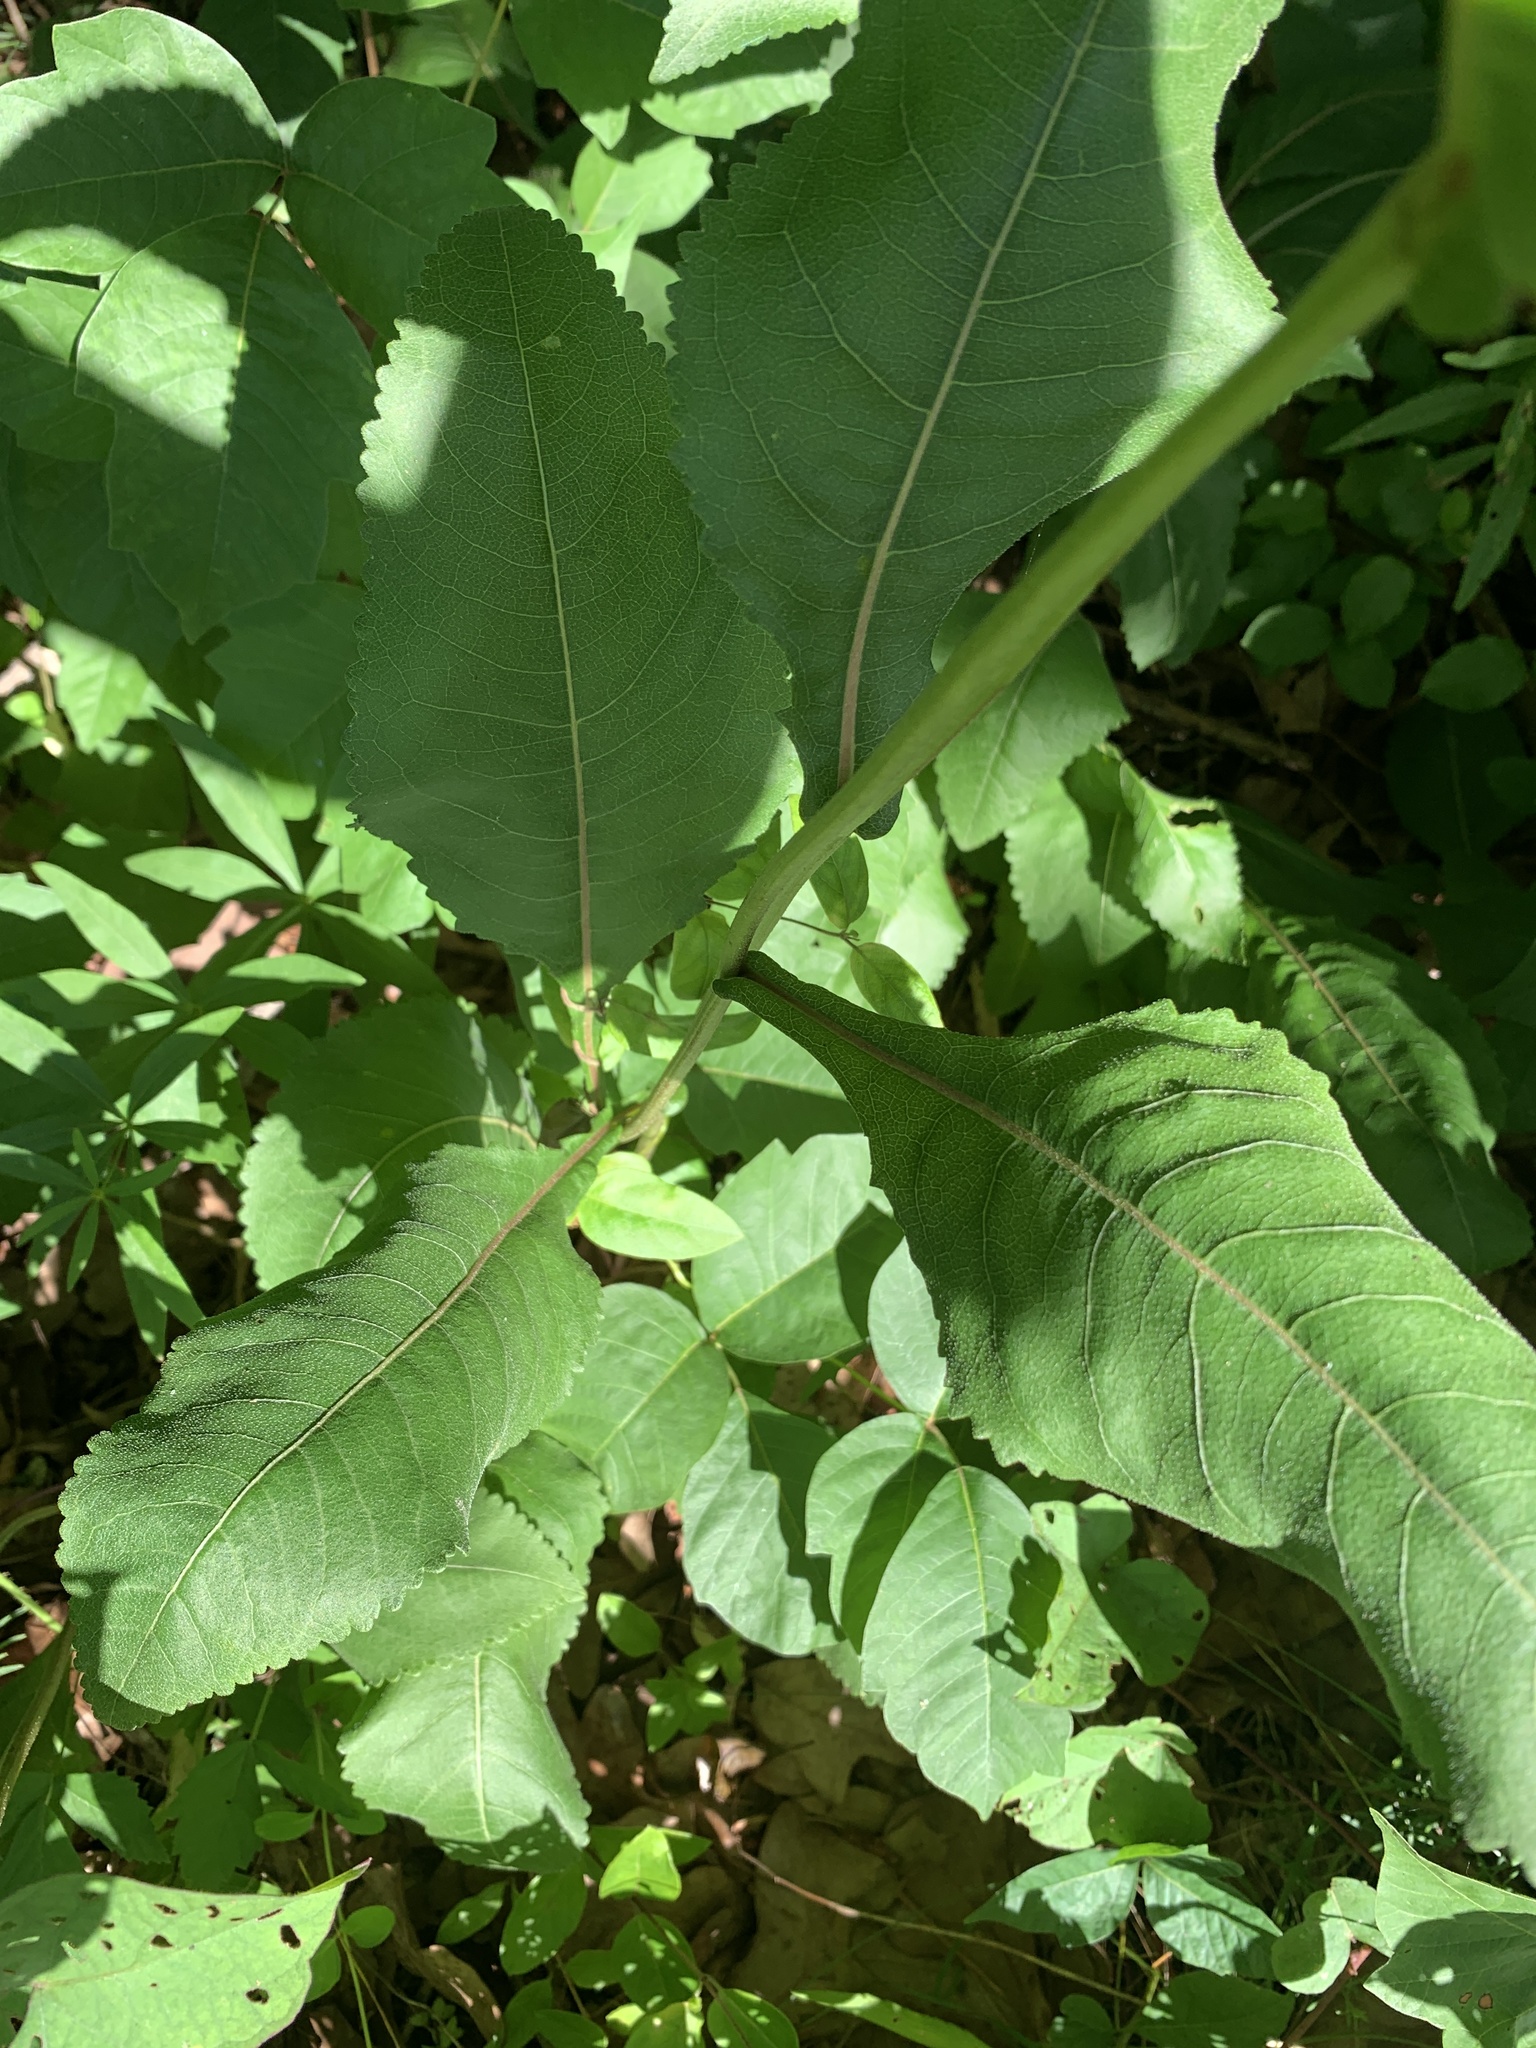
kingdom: Plantae
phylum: Tracheophyta
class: Magnoliopsida
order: Asterales
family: Asteraceae
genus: Parthenium
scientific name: Parthenium integrifolium
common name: American feverfew
